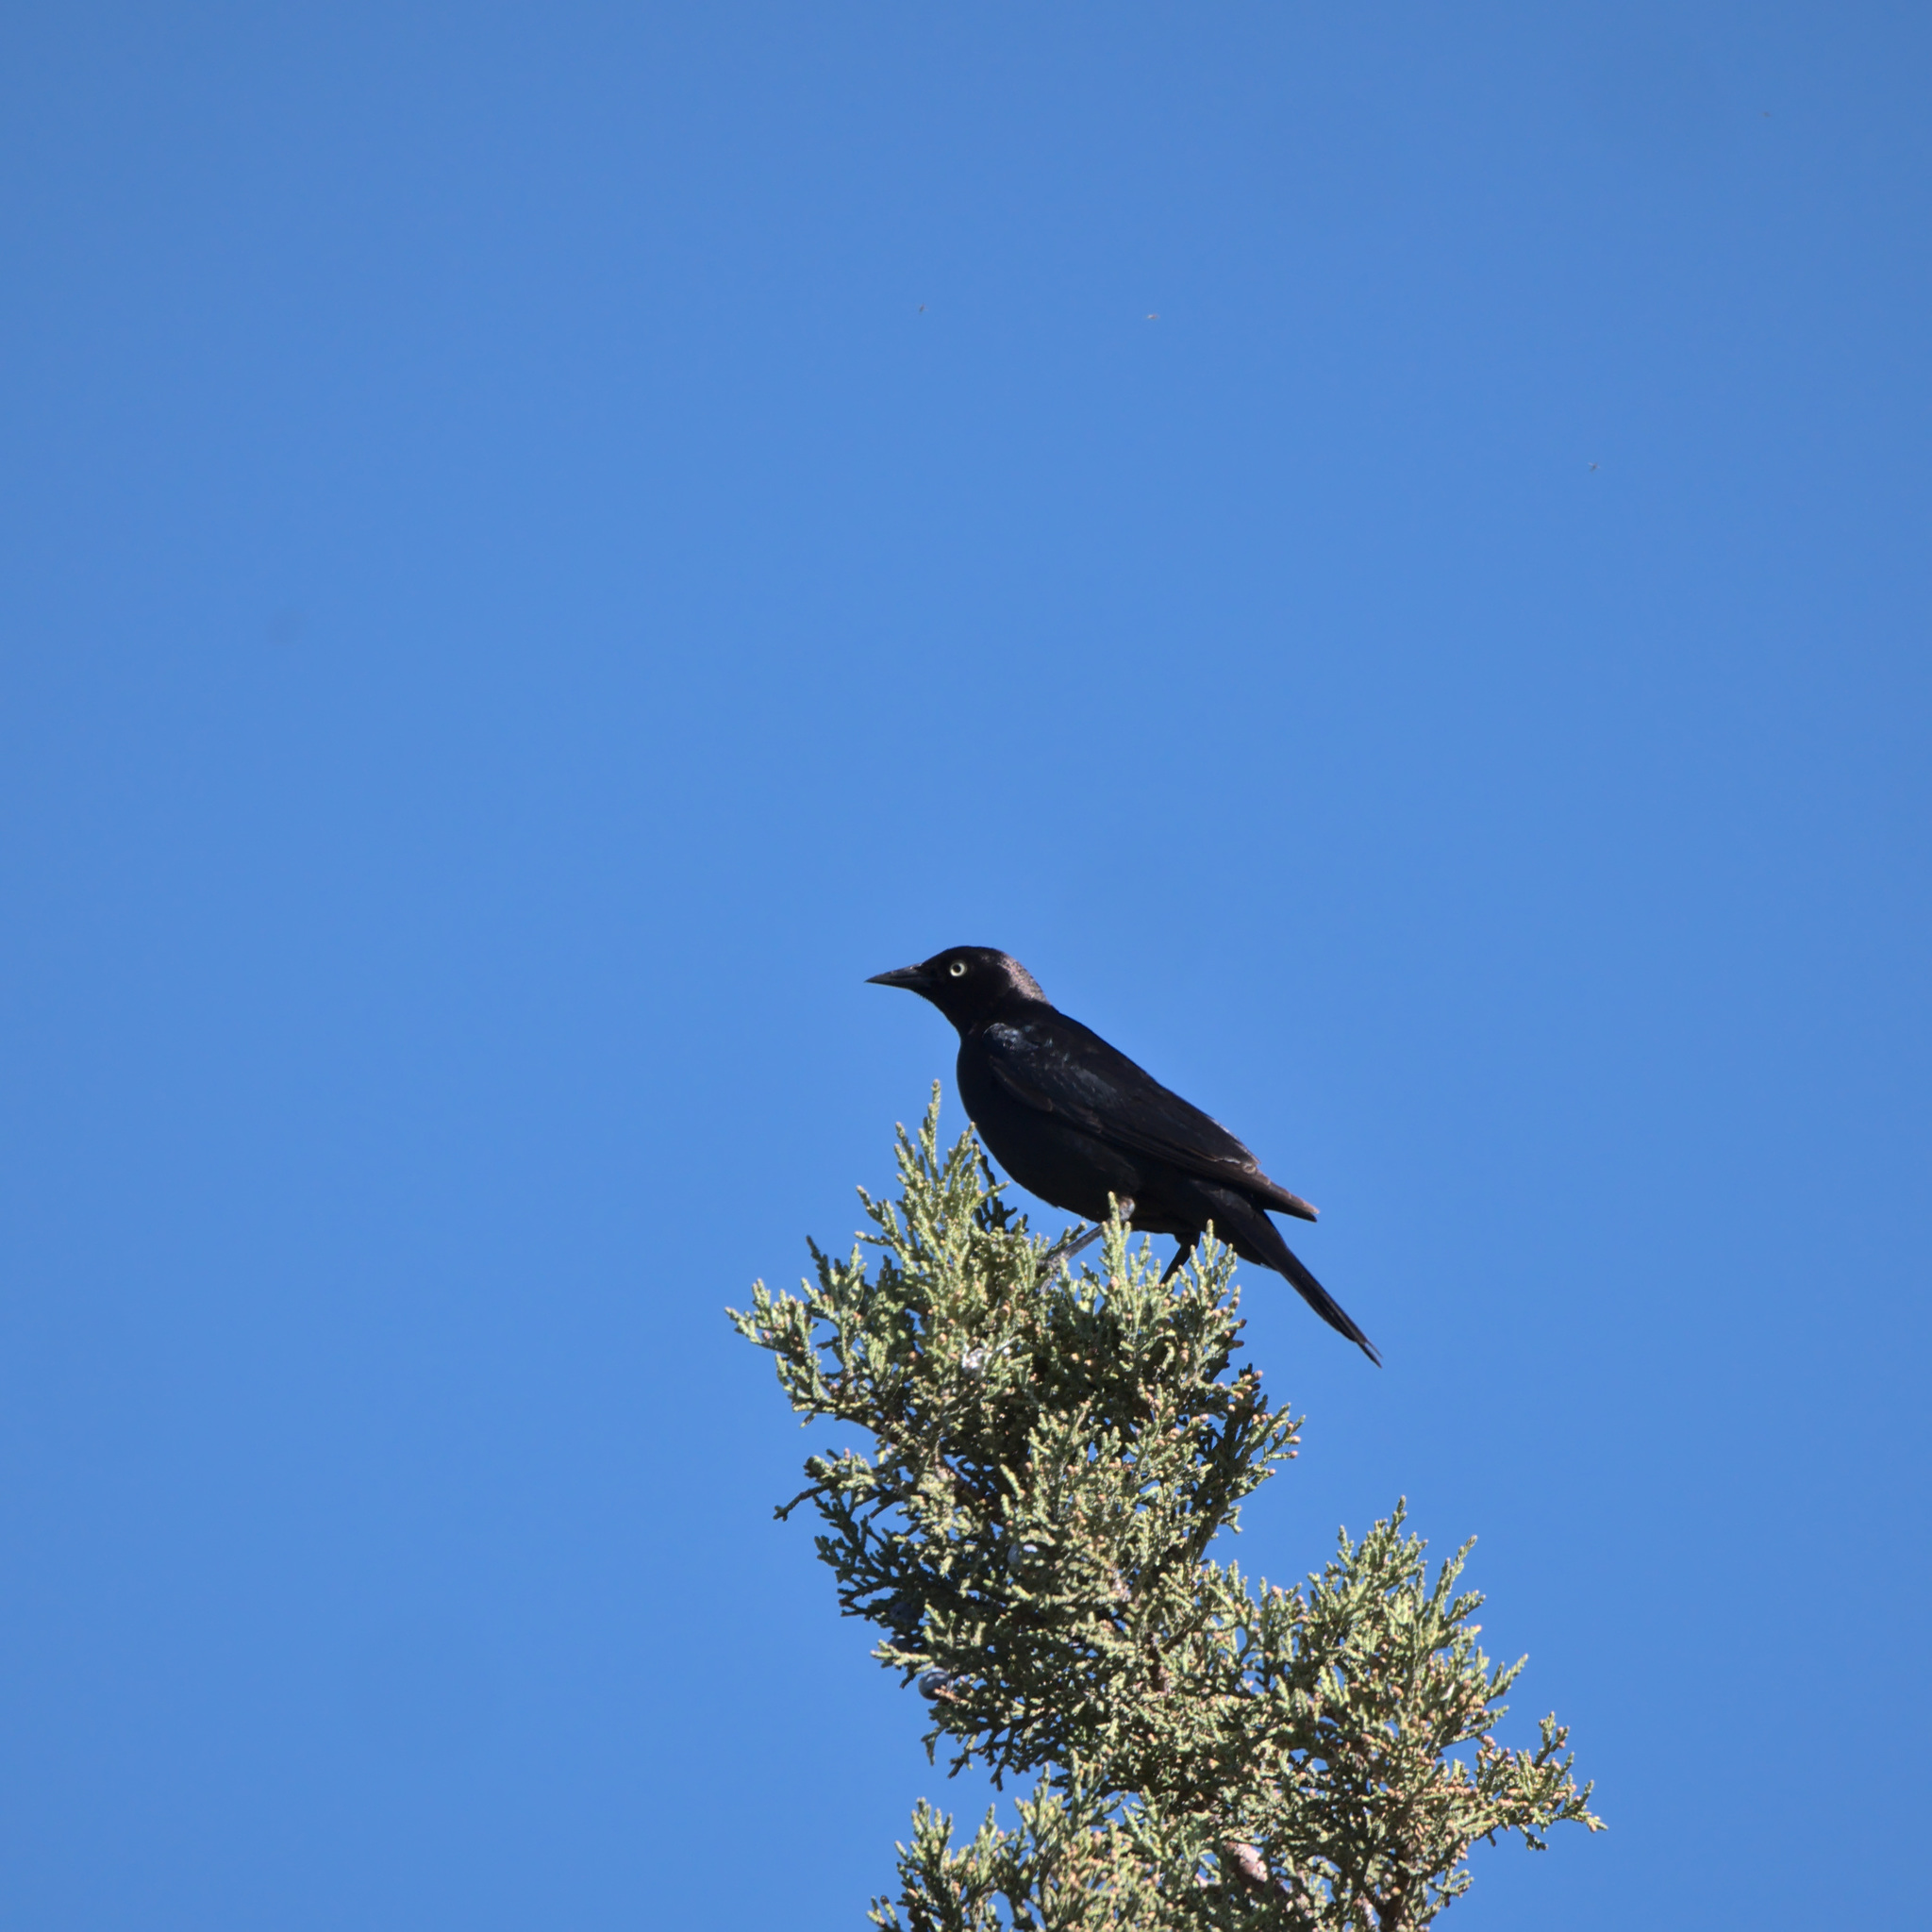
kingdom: Animalia
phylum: Chordata
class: Aves
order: Passeriformes
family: Icteridae
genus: Euphagus
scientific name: Euphagus cyanocephalus
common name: Brewer's blackbird
